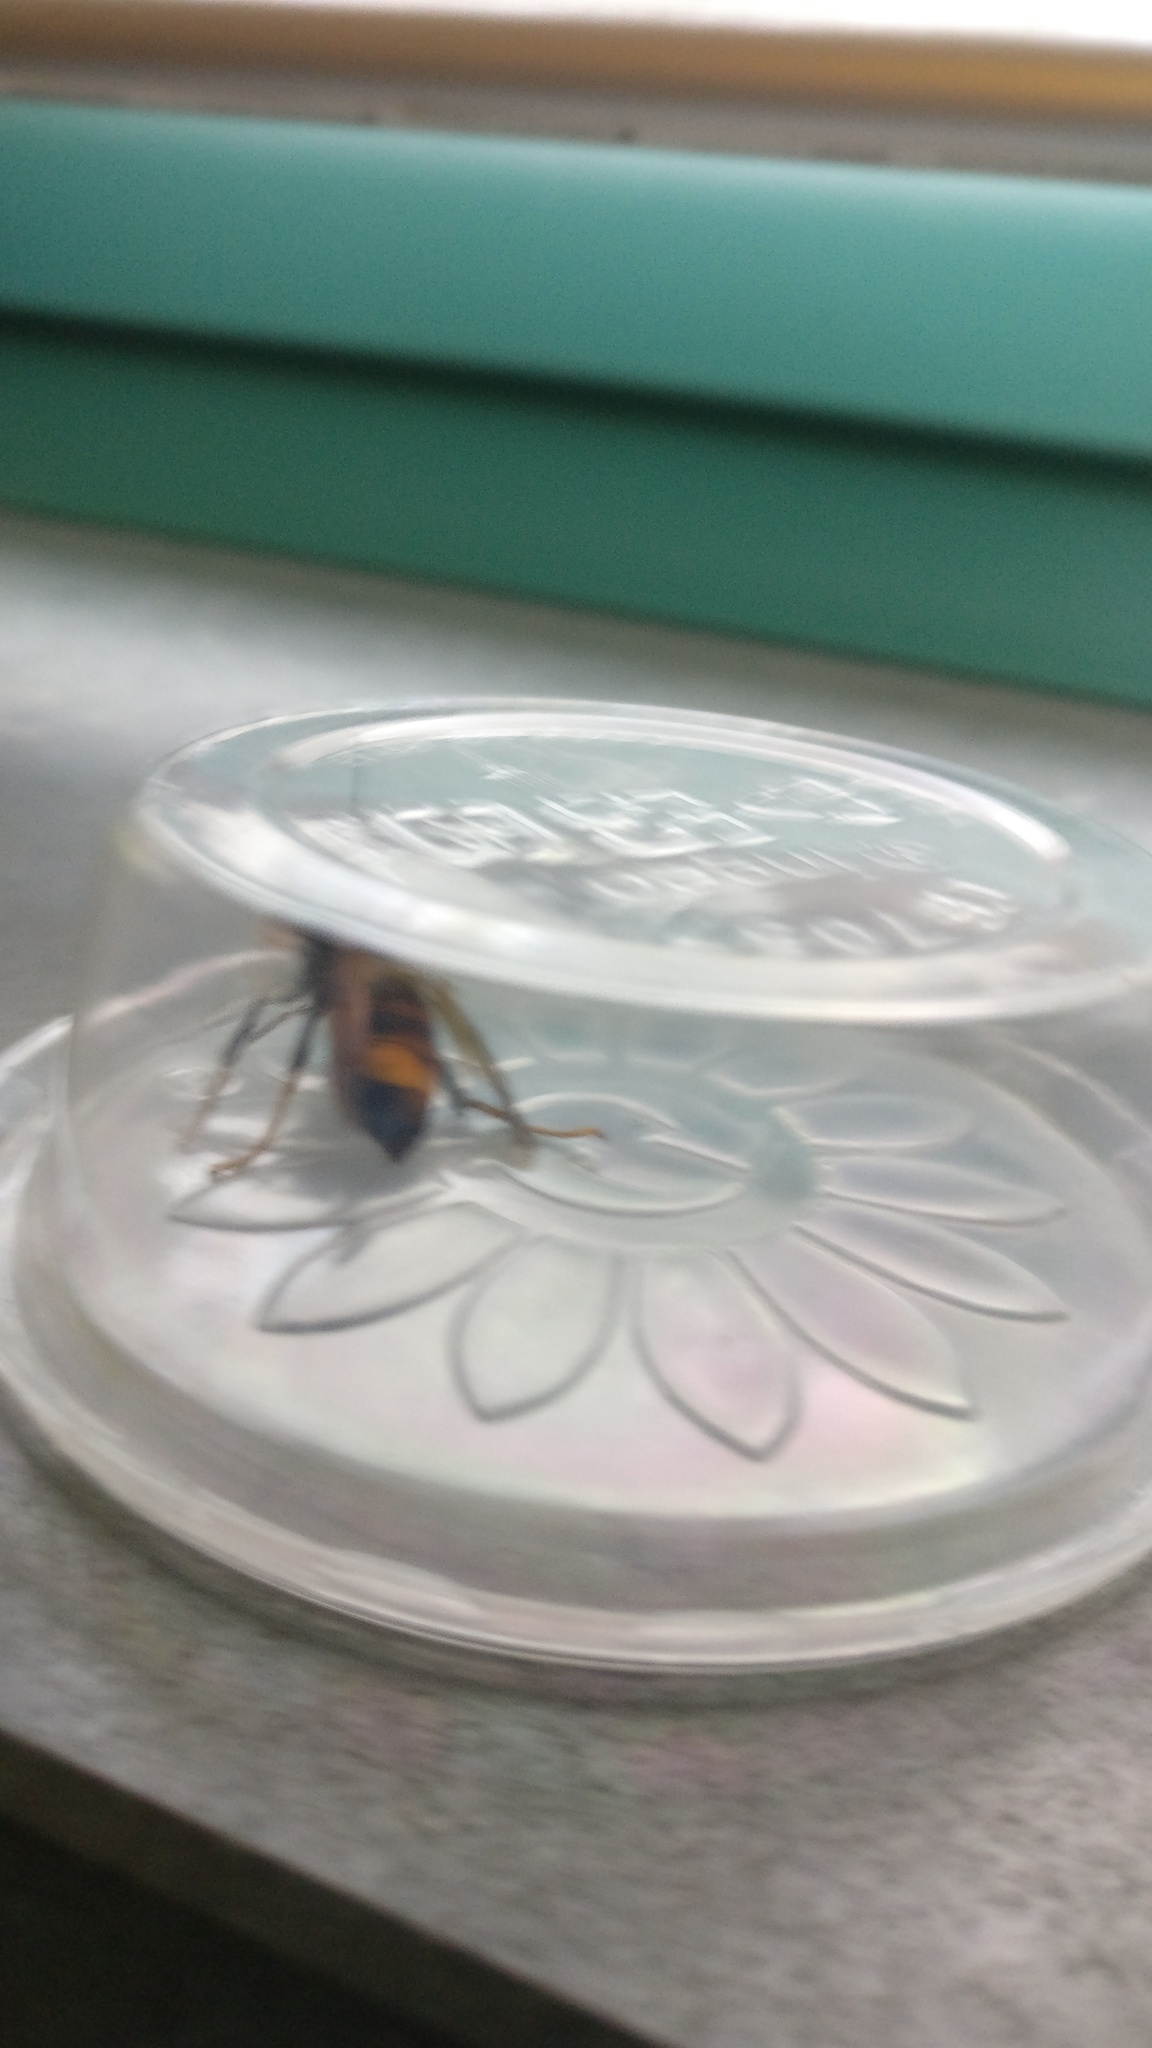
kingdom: Animalia
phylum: Arthropoda
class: Insecta
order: Hymenoptera
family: Vespidae
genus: Vespa
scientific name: Vespa velutina
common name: Asian hornet
